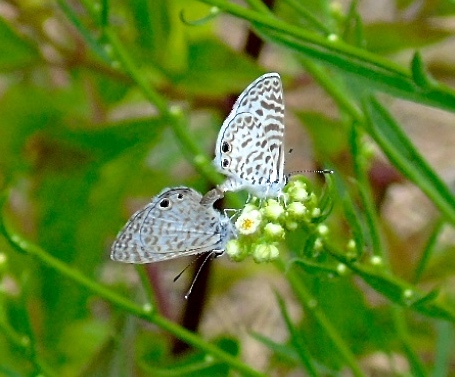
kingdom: Animalia
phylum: Arthropoda
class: Insecta
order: Lepidoptera
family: Lycaenidae
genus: Leptotes
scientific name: Leptotes theonus
